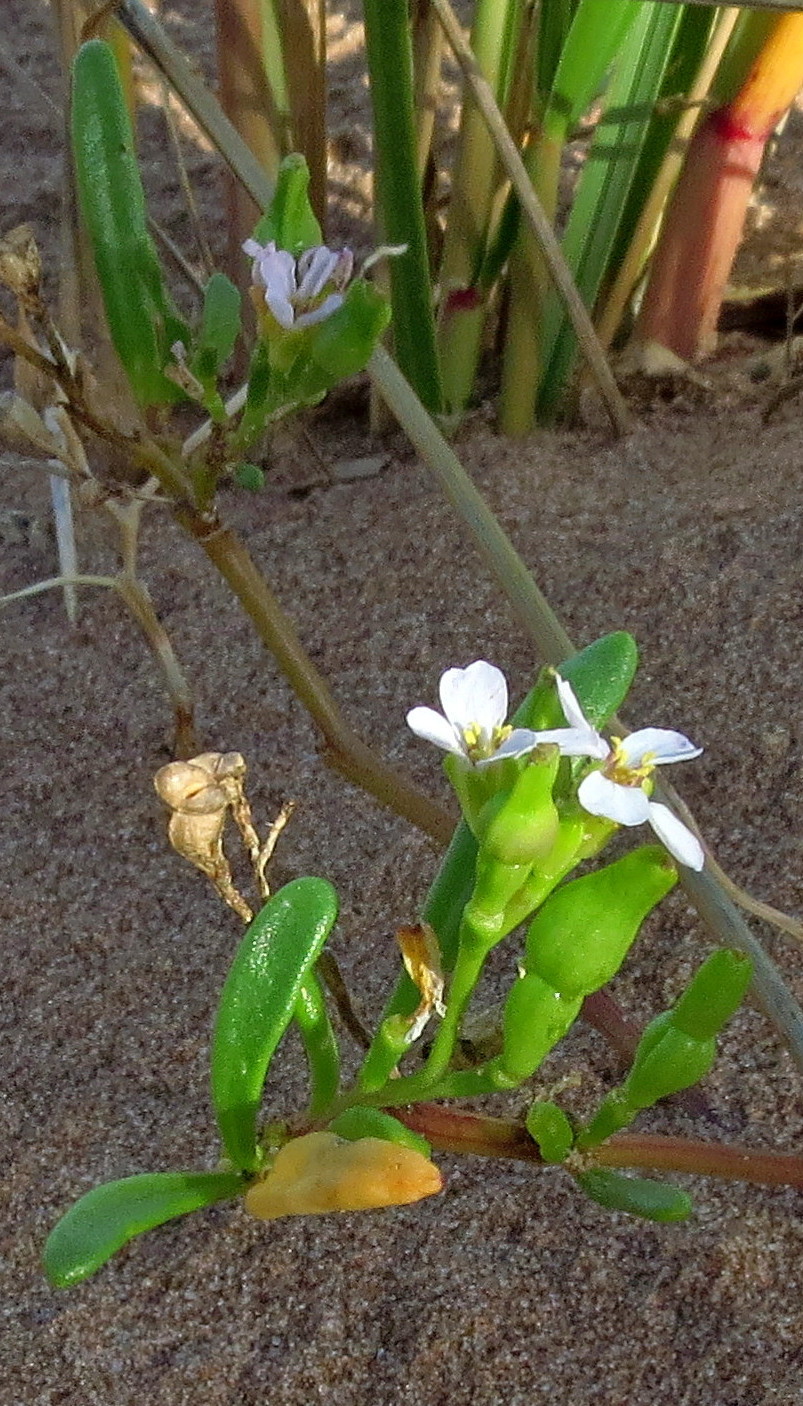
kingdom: Plantae
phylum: Tracheophyta
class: Magnoliopsida
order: Brassicales
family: Brassicaceae
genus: Cakile
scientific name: Cakile edentula
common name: American sea rocket
